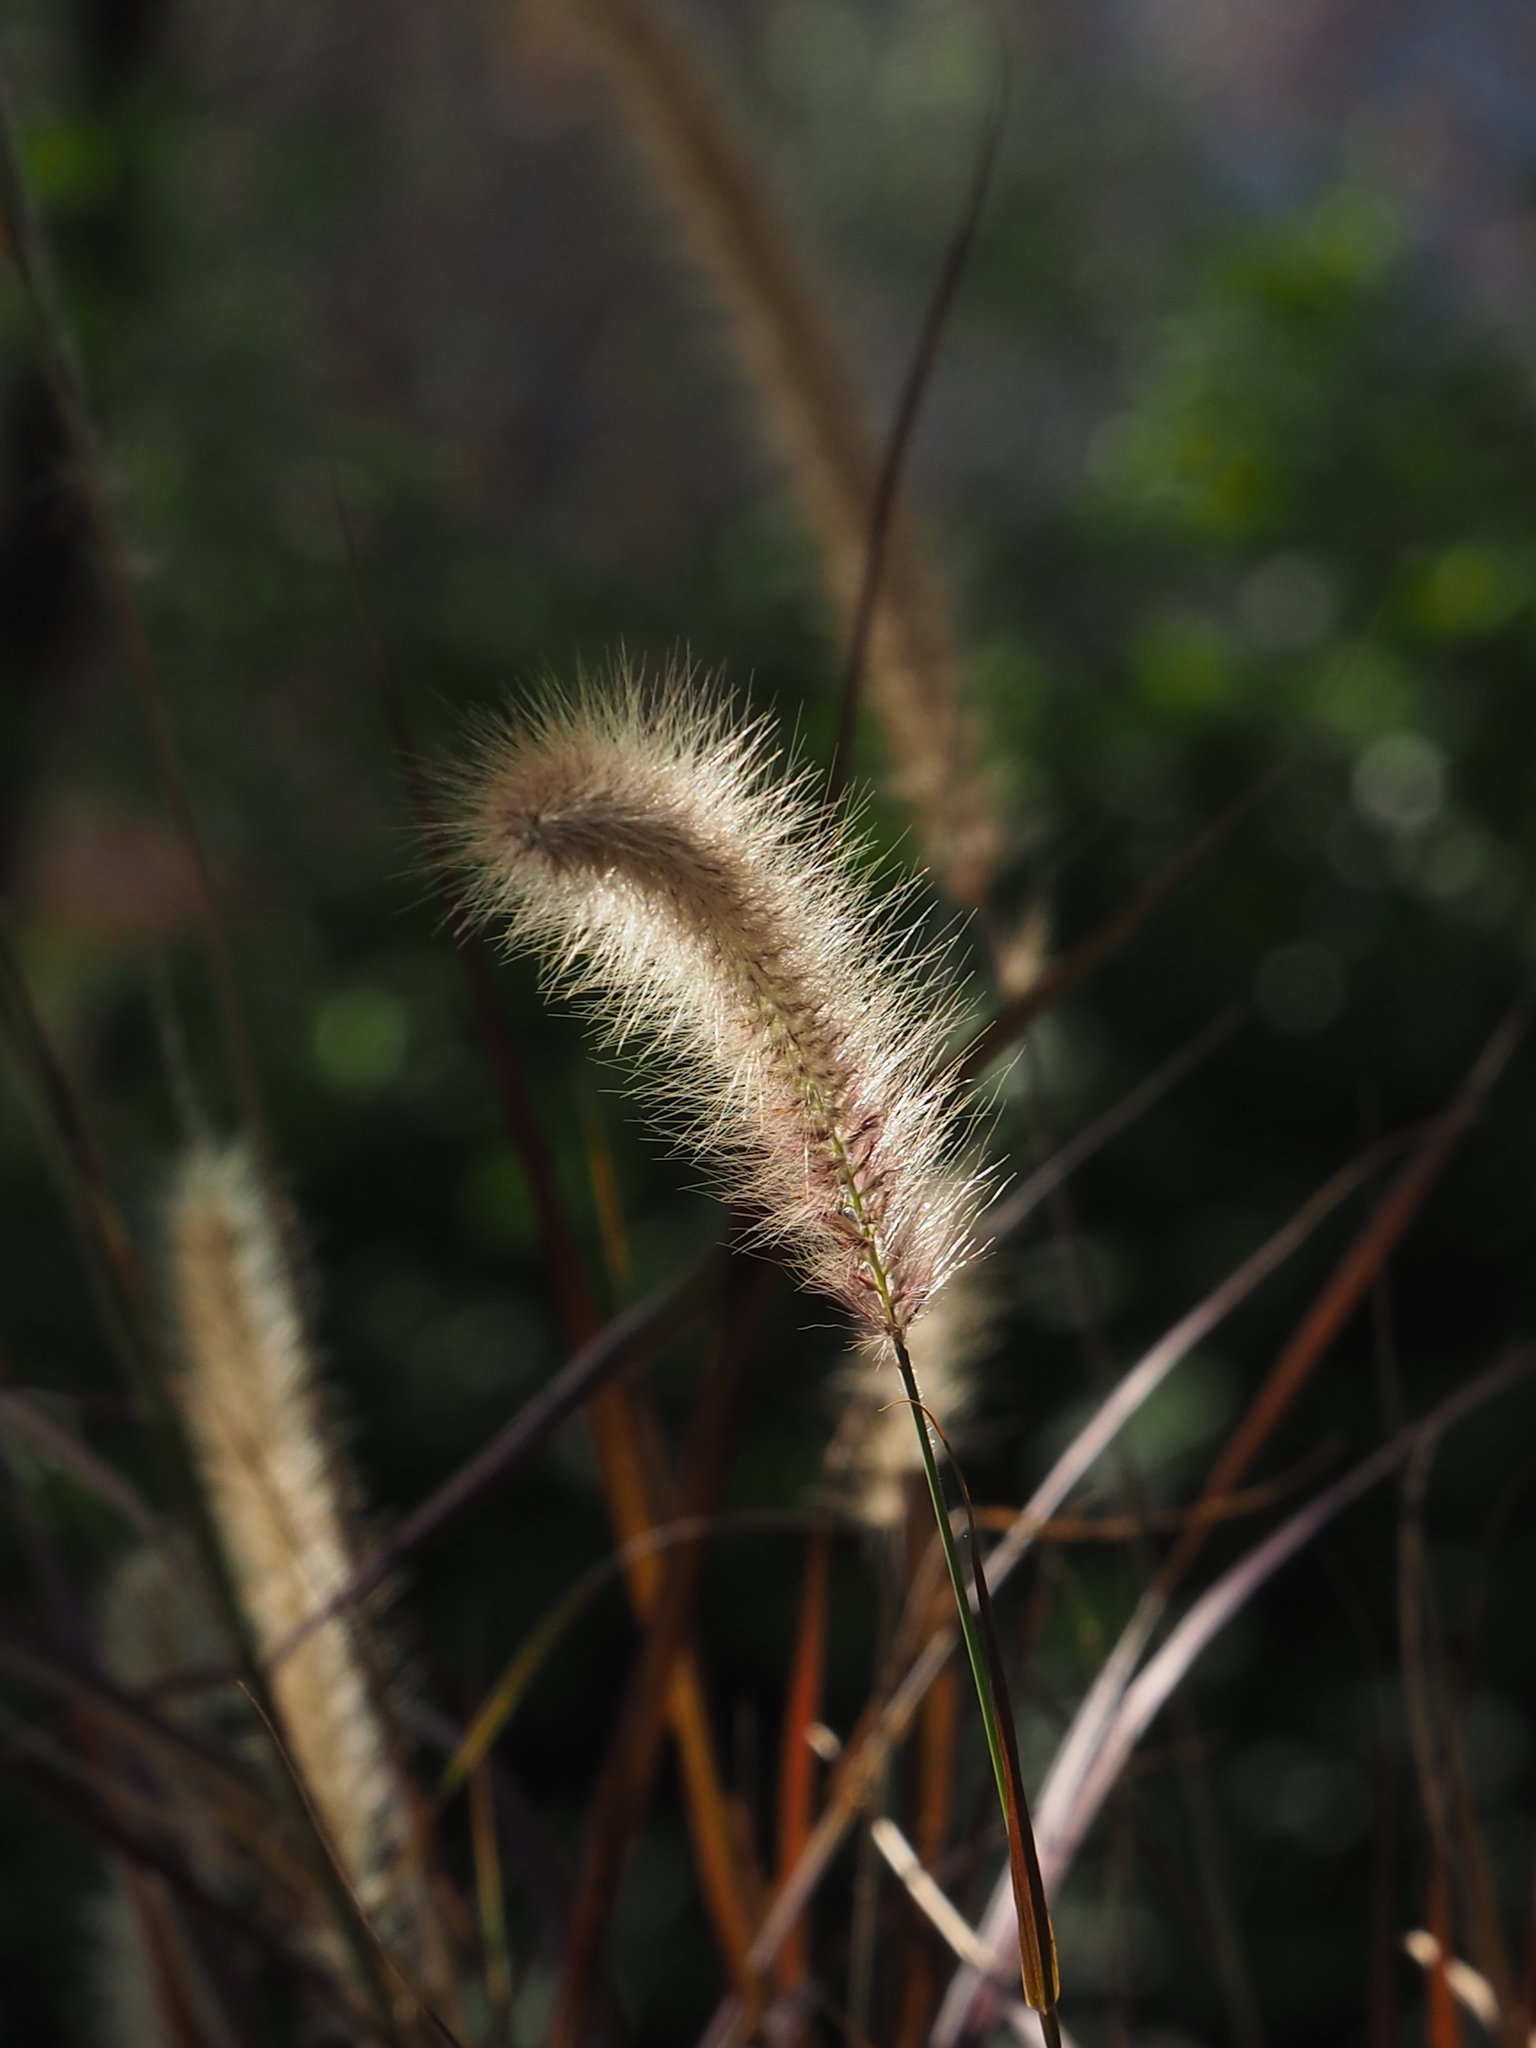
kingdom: Plantae
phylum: Tracheophyta
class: Liliopsida
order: Poales
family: Poaceae
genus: Cenchrus
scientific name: Cenchrus setaceus
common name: Crimson fountaingrass
